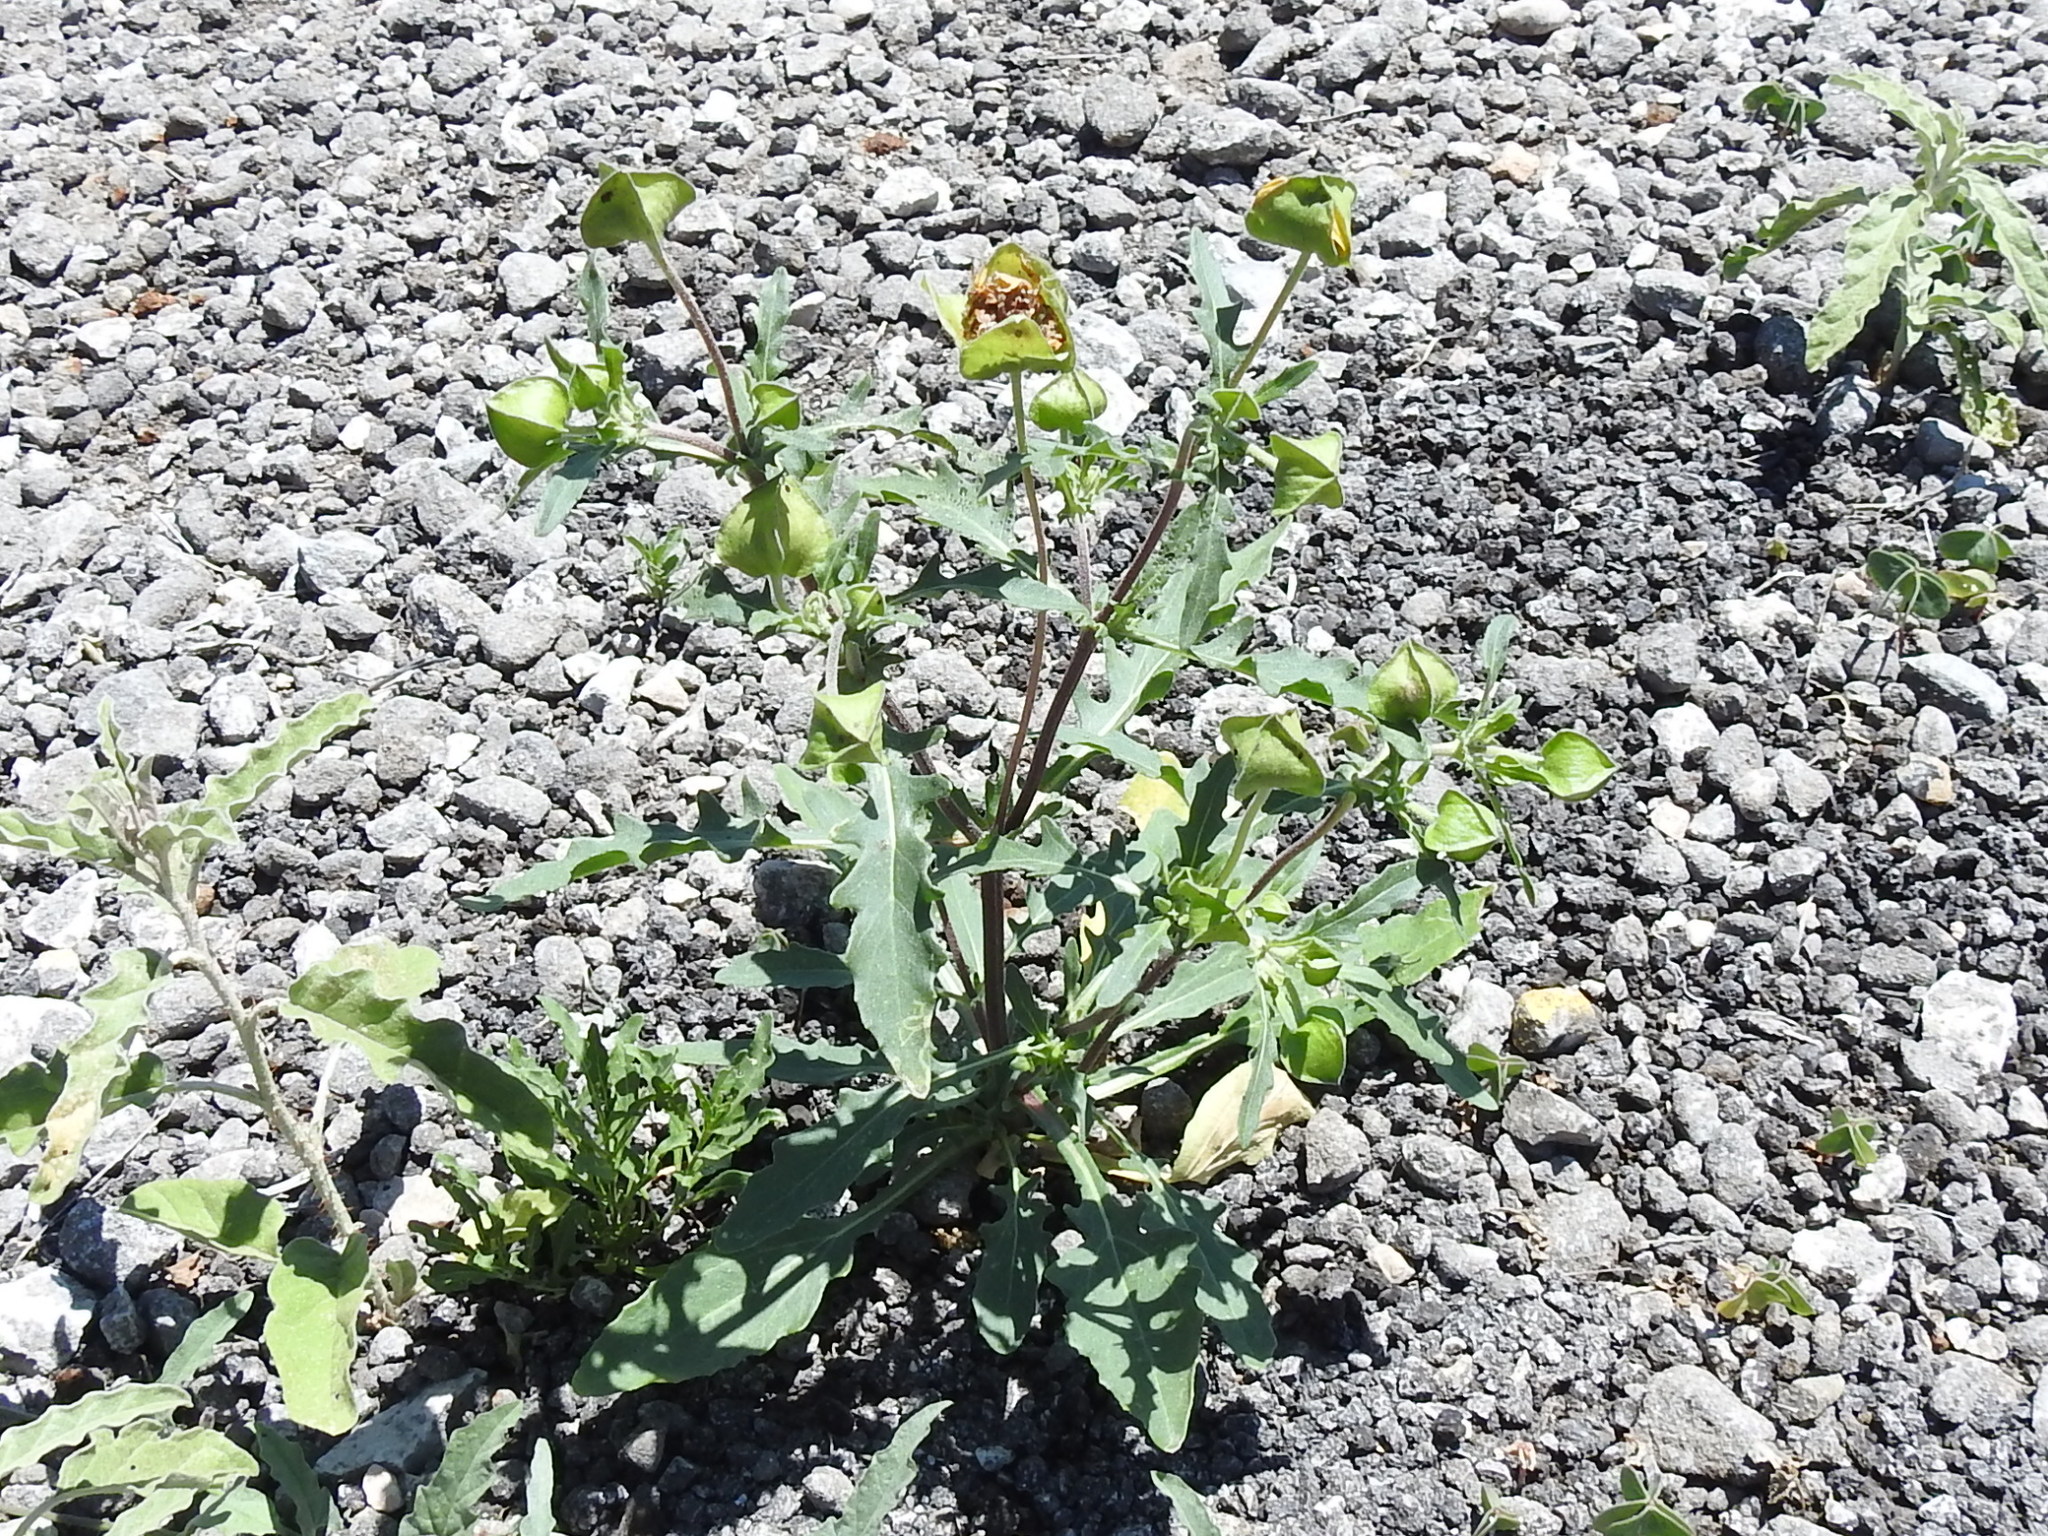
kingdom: Plantae
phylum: Tracheophyta
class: Magnoliopsida
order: Asterales
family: Asteraceae
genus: Tetragonotheca
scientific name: Tetragonotheca texana
